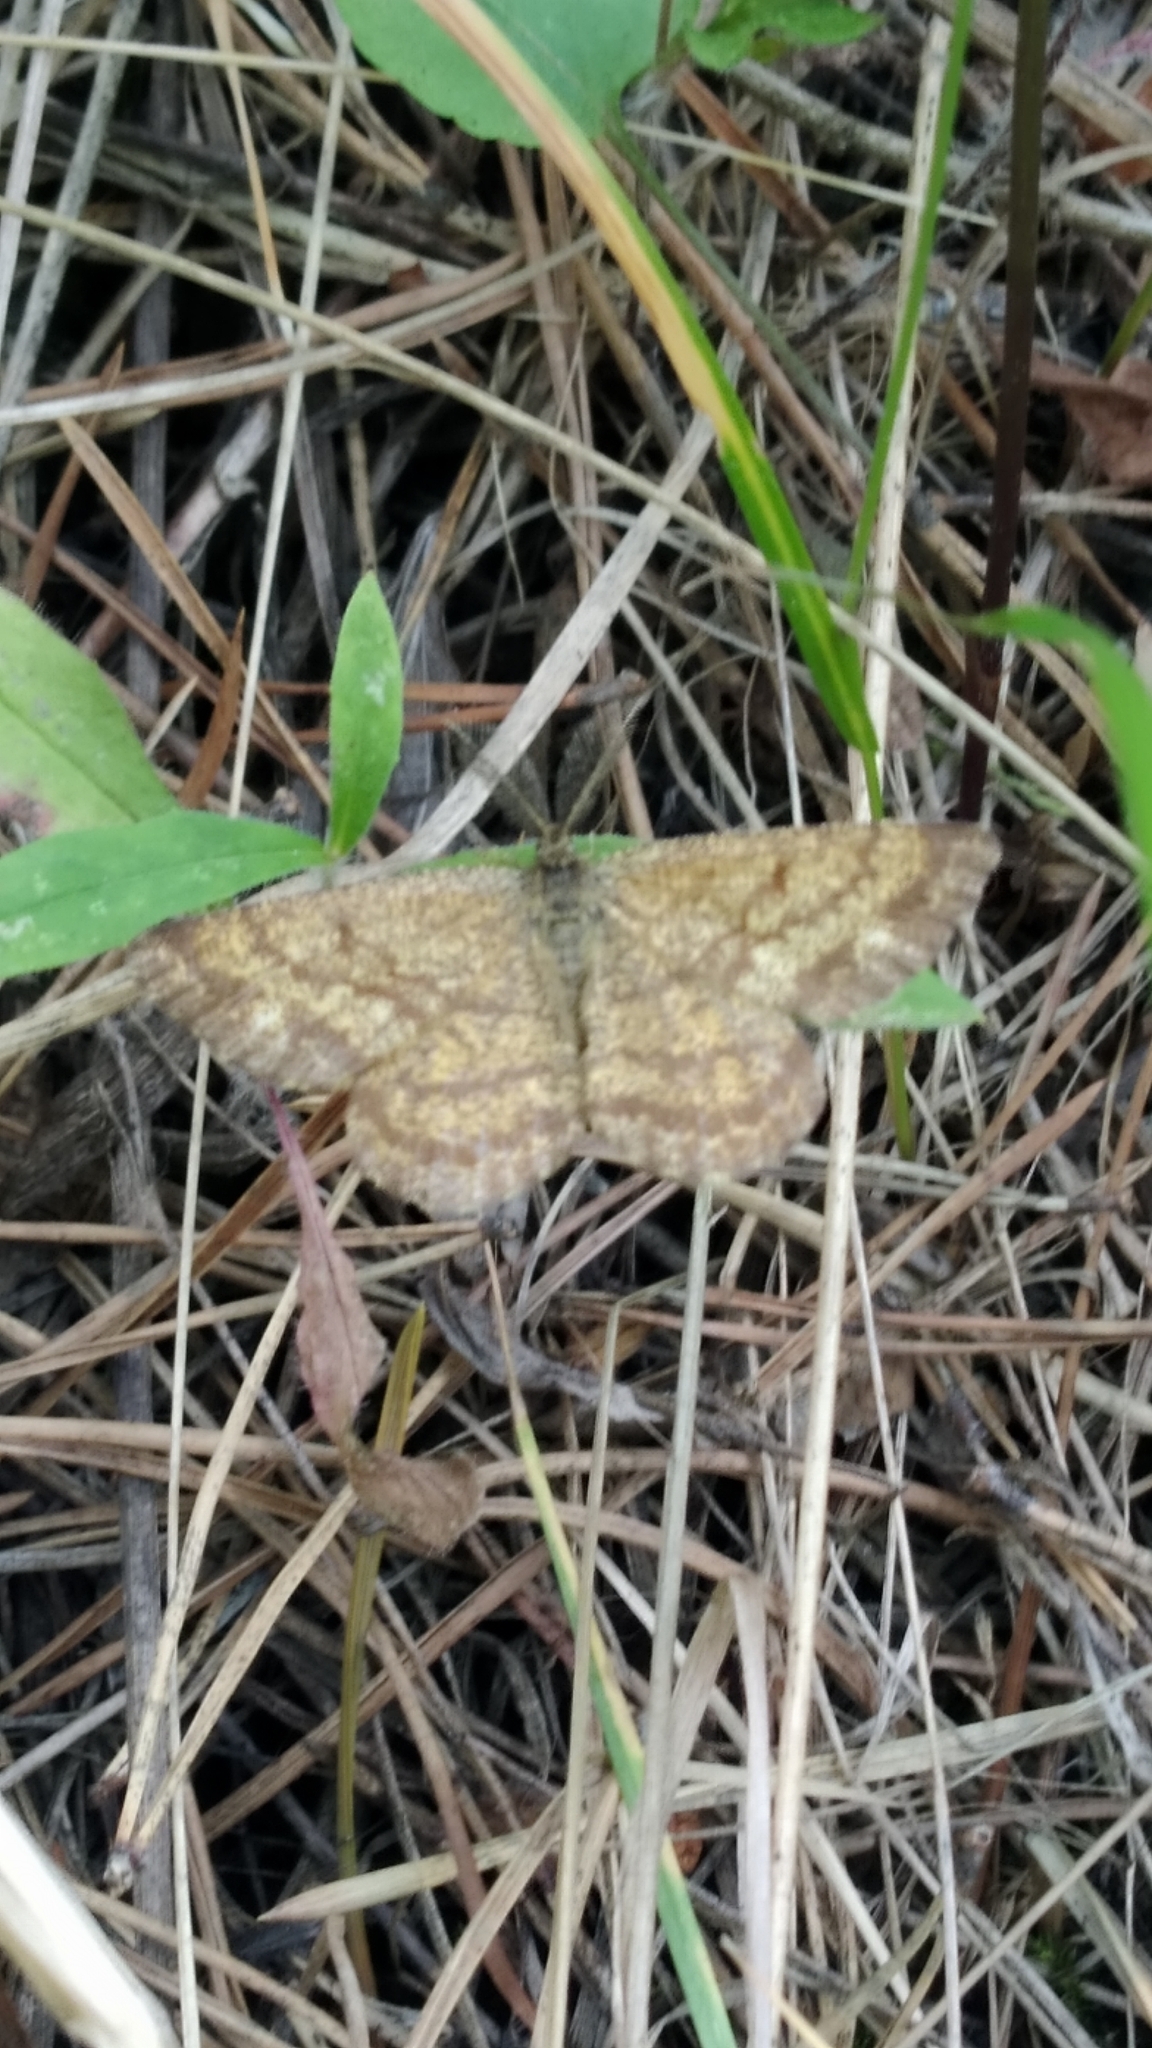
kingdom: Animalia
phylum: Arthropoda
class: Insecta
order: Lepidoptera
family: Geometridae
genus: Ematurga
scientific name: Ematurga atomaria
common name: Common heath
